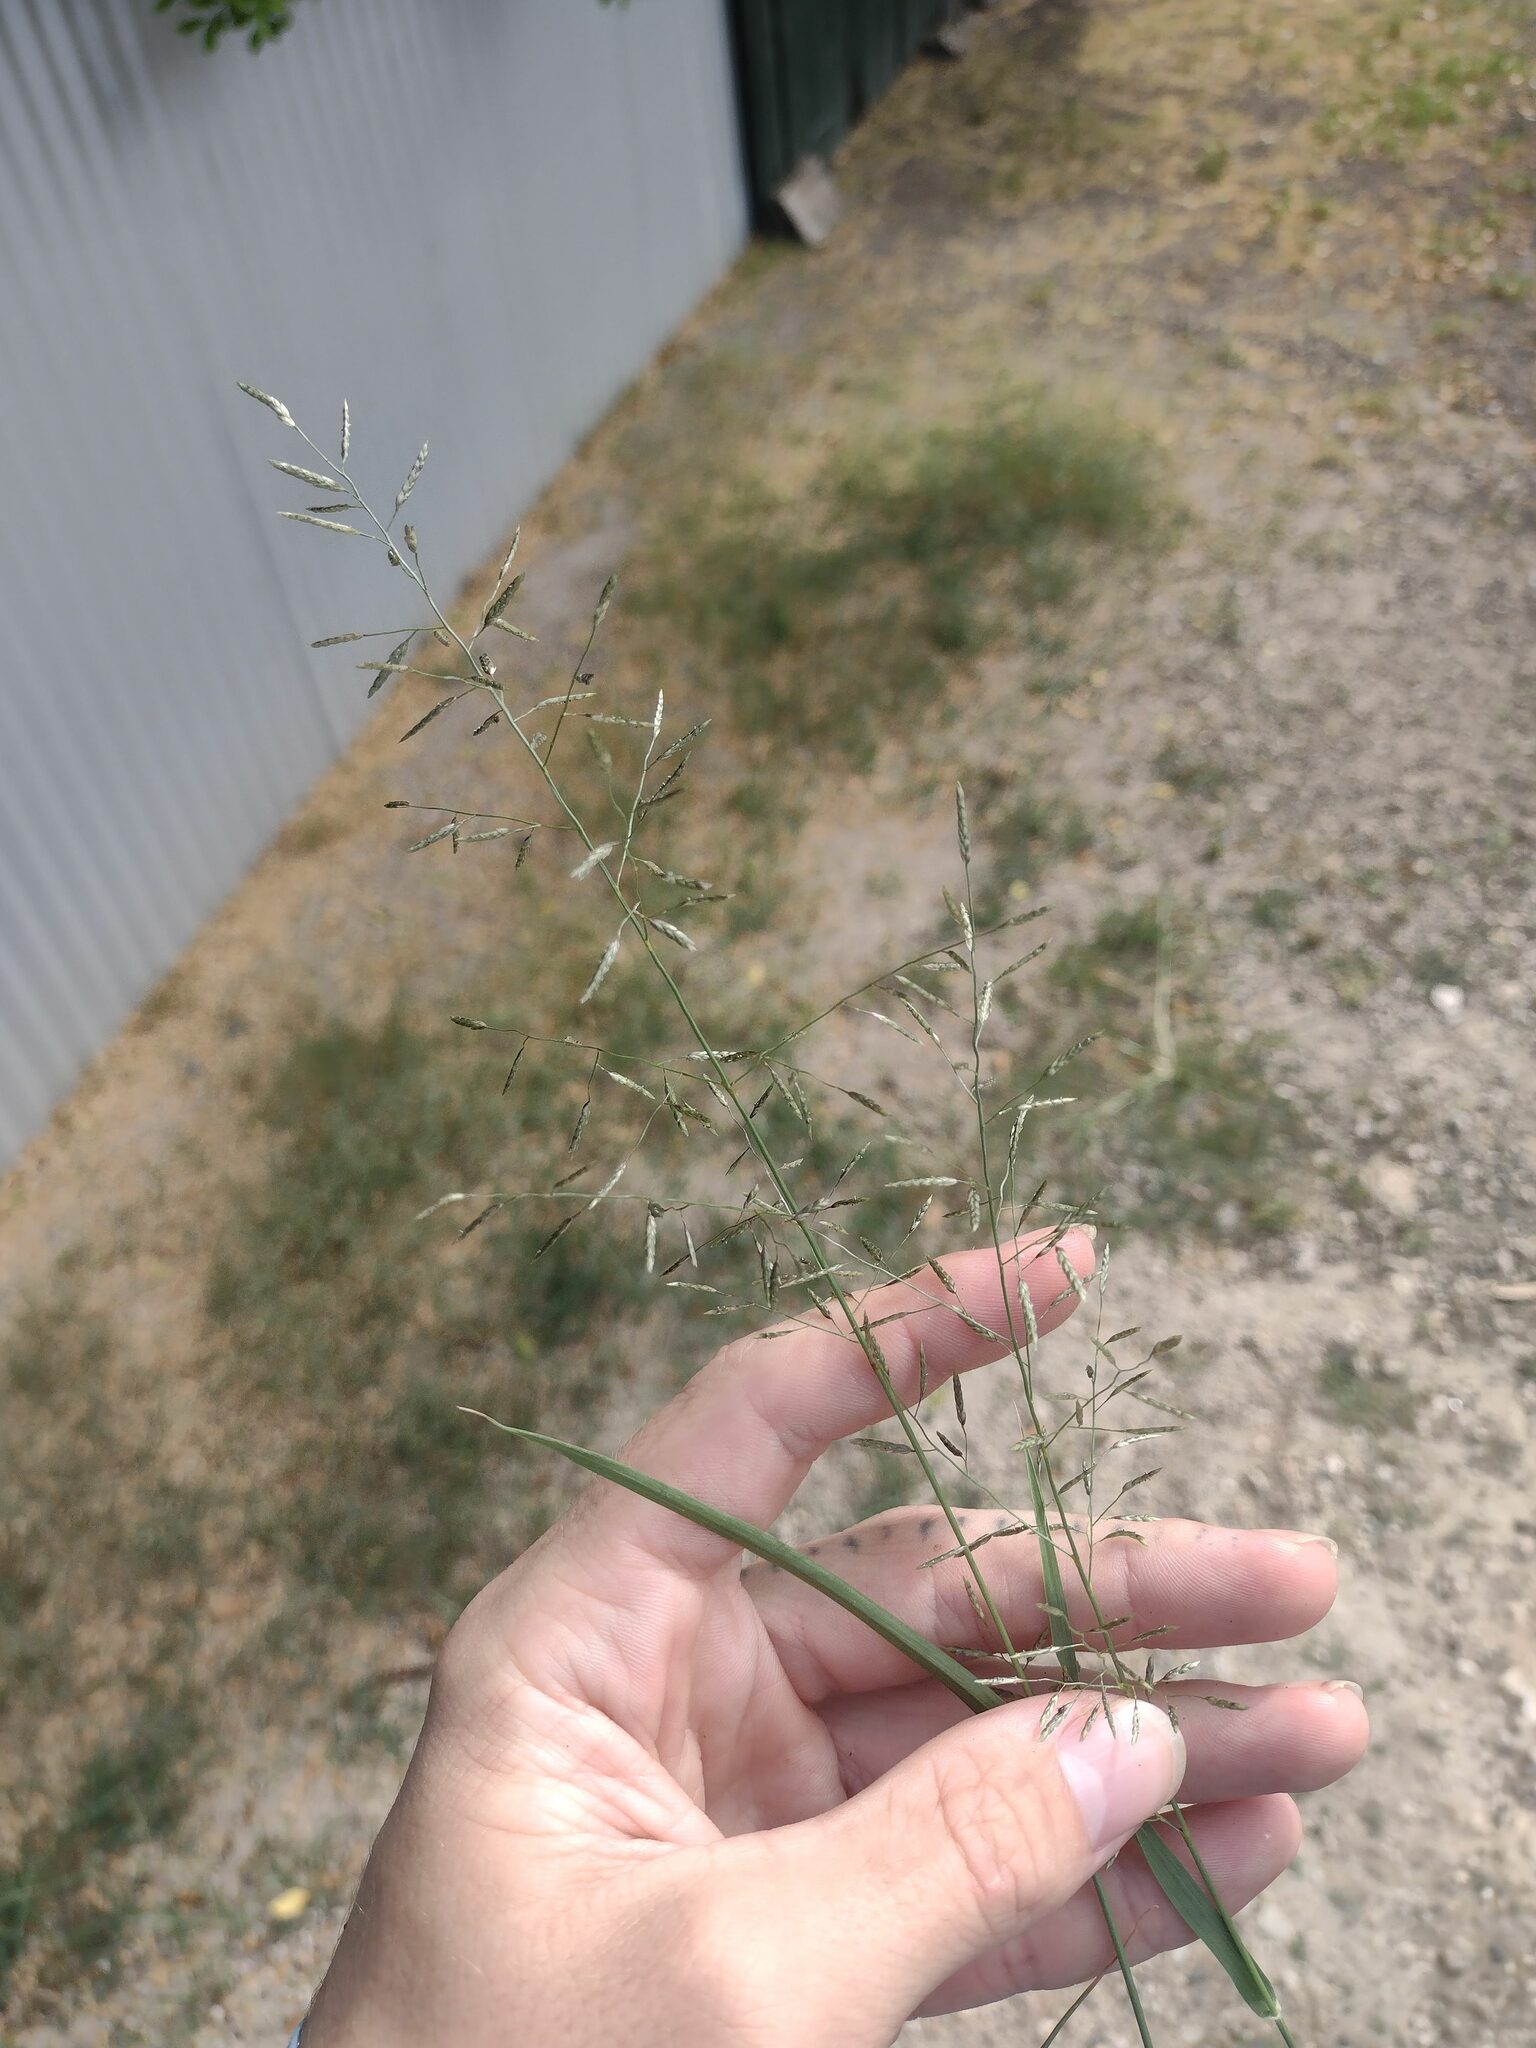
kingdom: Plantae
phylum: Tracheophyta
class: Liliopsida
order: Poales
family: Poaceae
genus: Eragrostis
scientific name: Eragrostis barrelieri
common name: Mediterranean lovegrass
